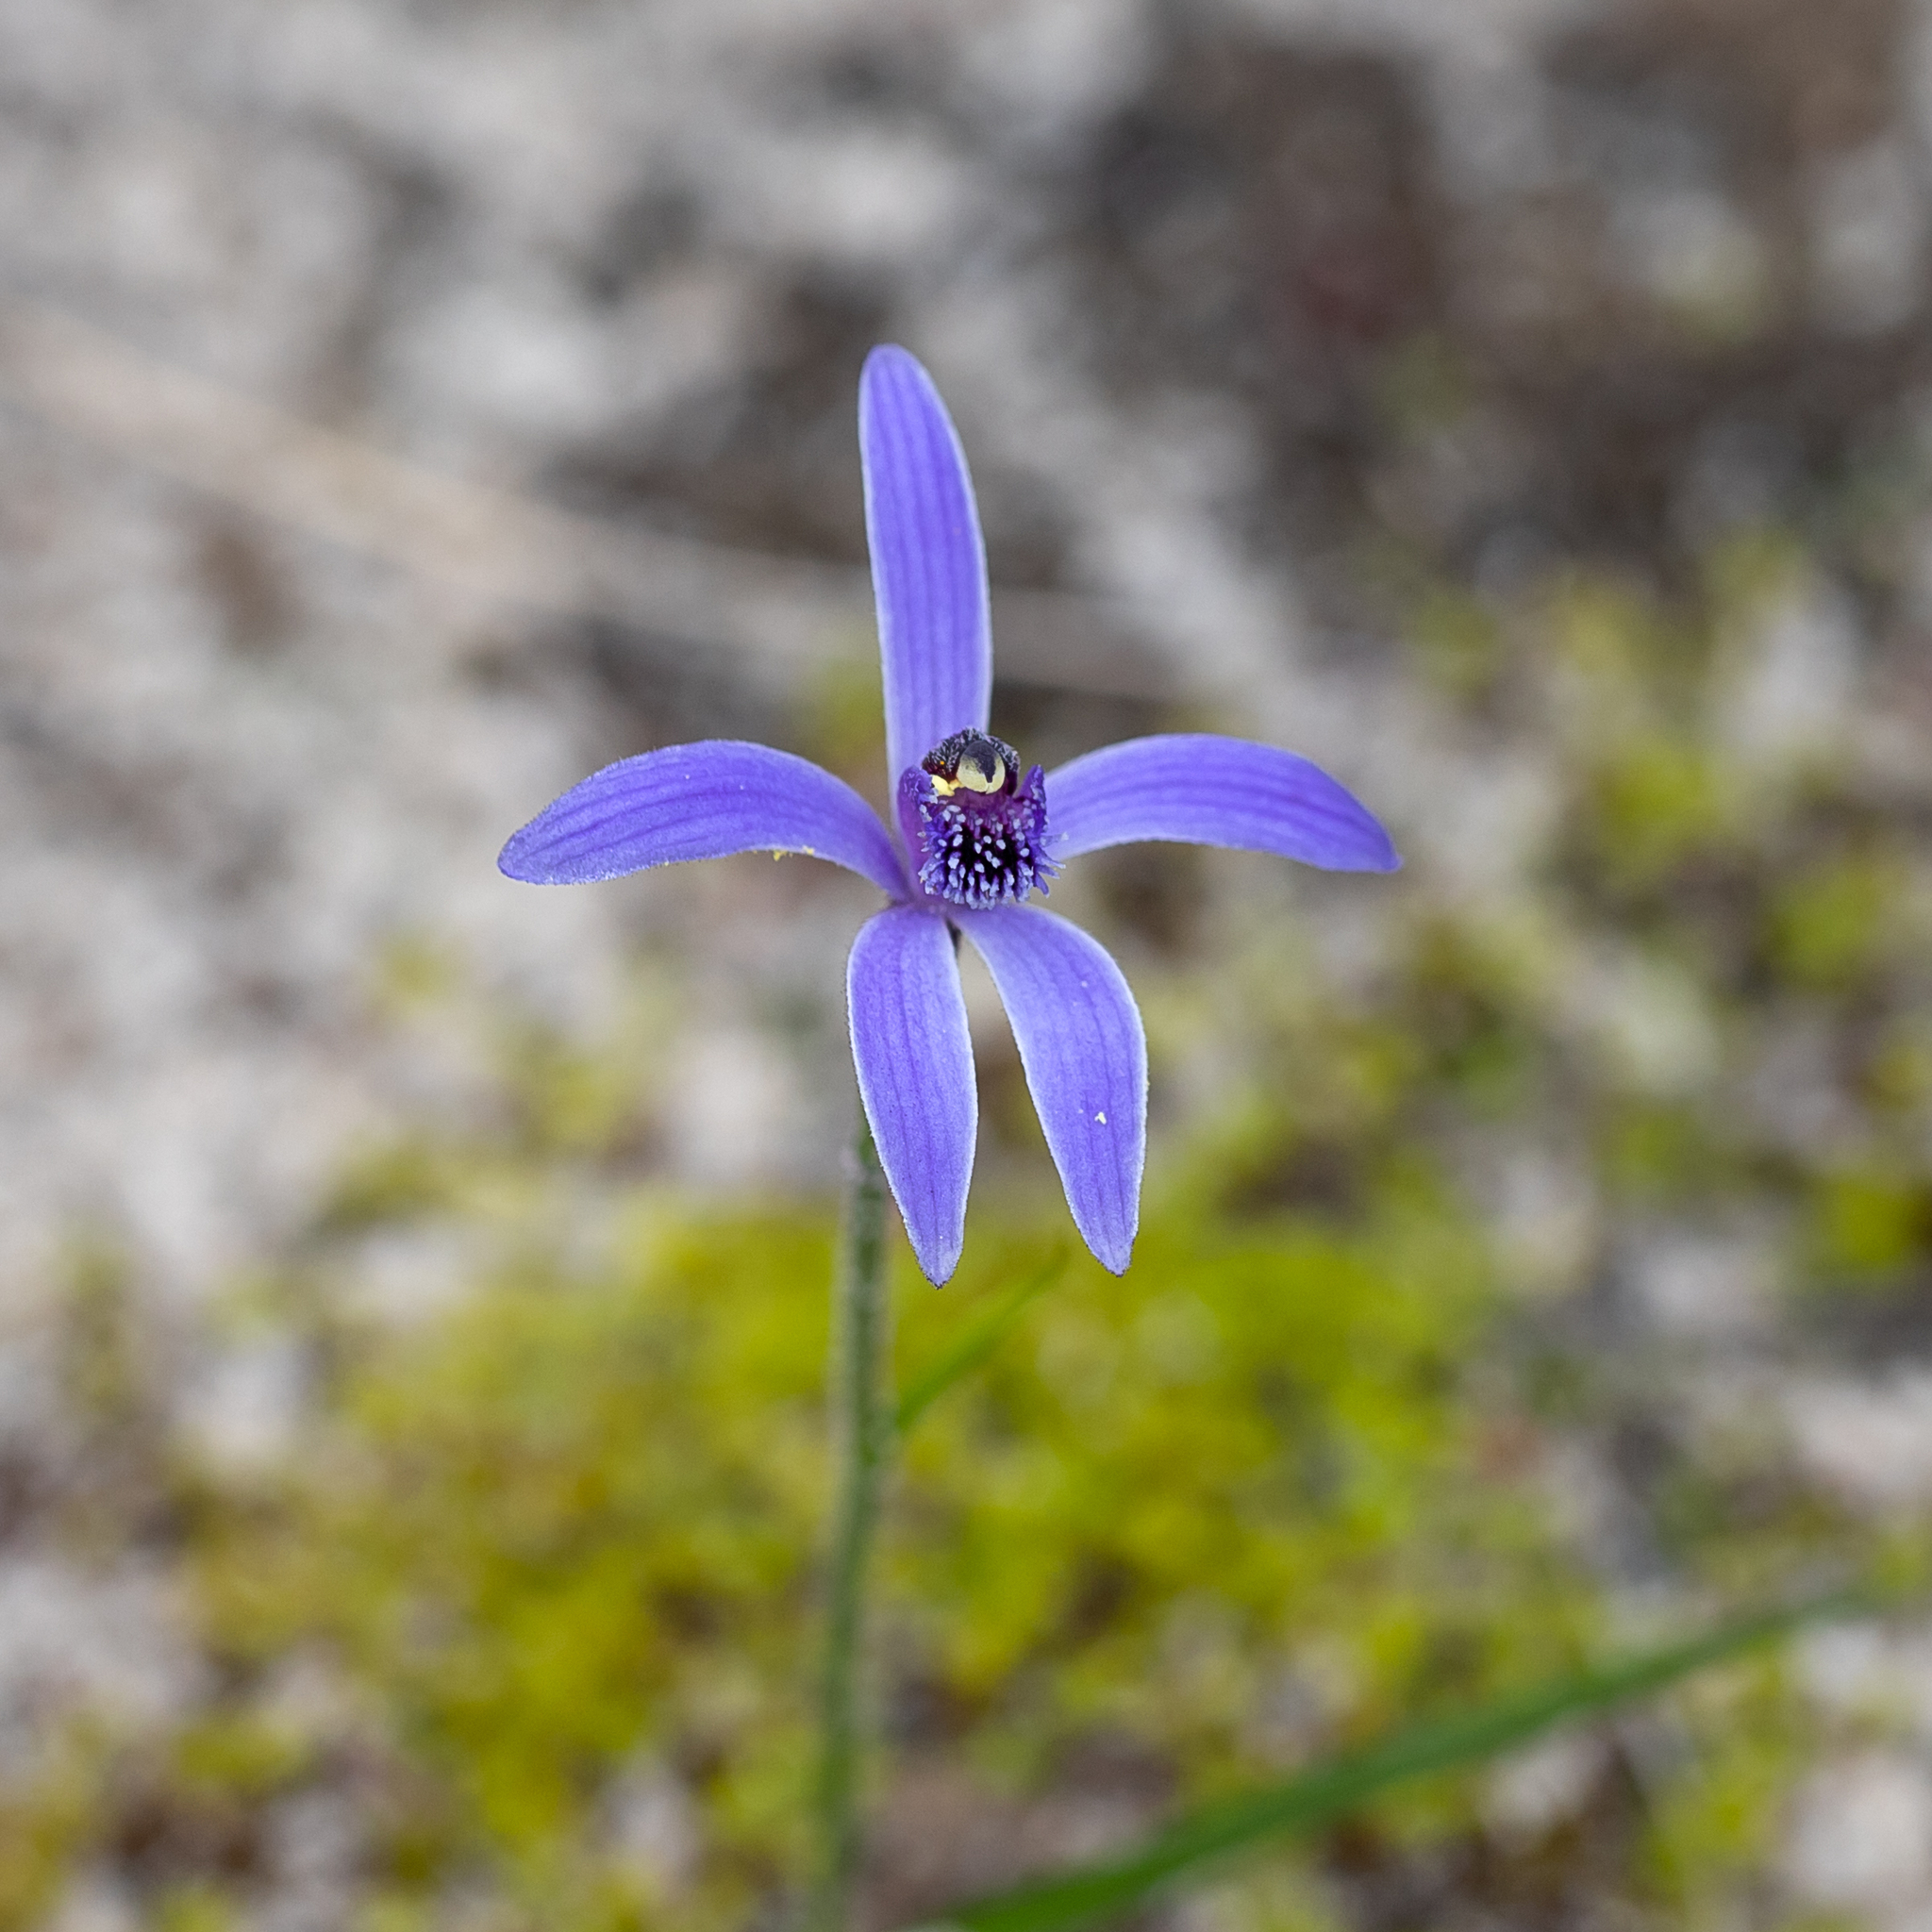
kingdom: Plantae
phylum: Tracheophyta
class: Liliopsida
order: Asparagales
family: Orchidaceae
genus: Pheladenia
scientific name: Pheladenia deformis
